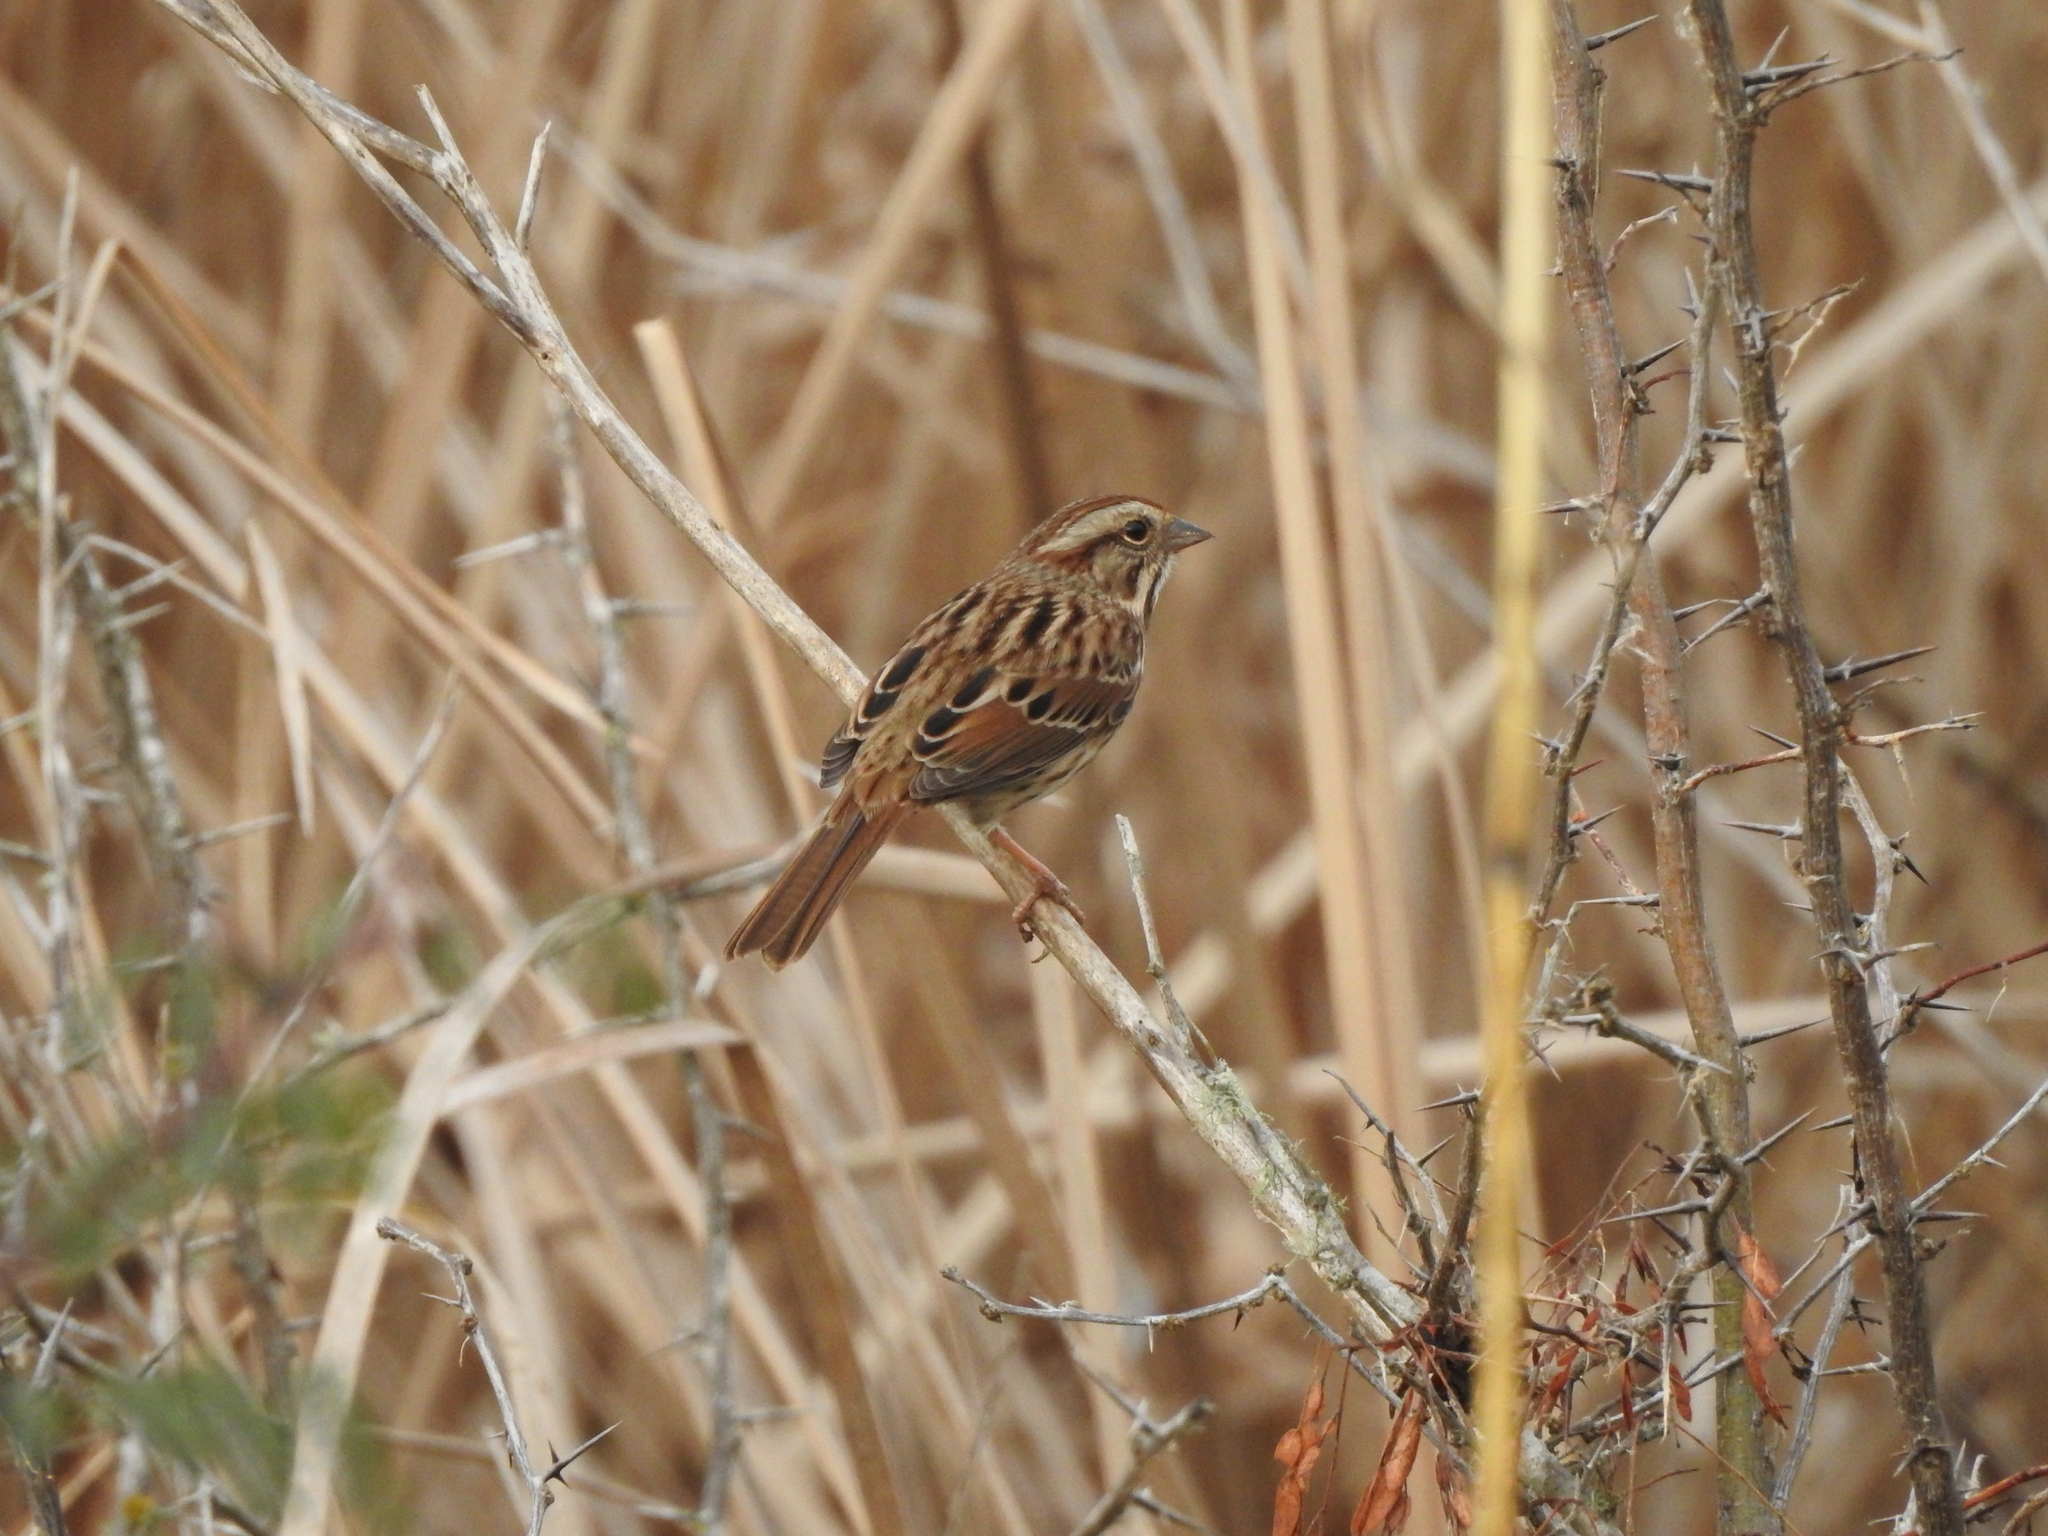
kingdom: Animalia
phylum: Chordata
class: Aves
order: Passeriformes
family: Passerellidae
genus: Melospiza
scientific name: Melospiza melodia
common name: Song sparrow
